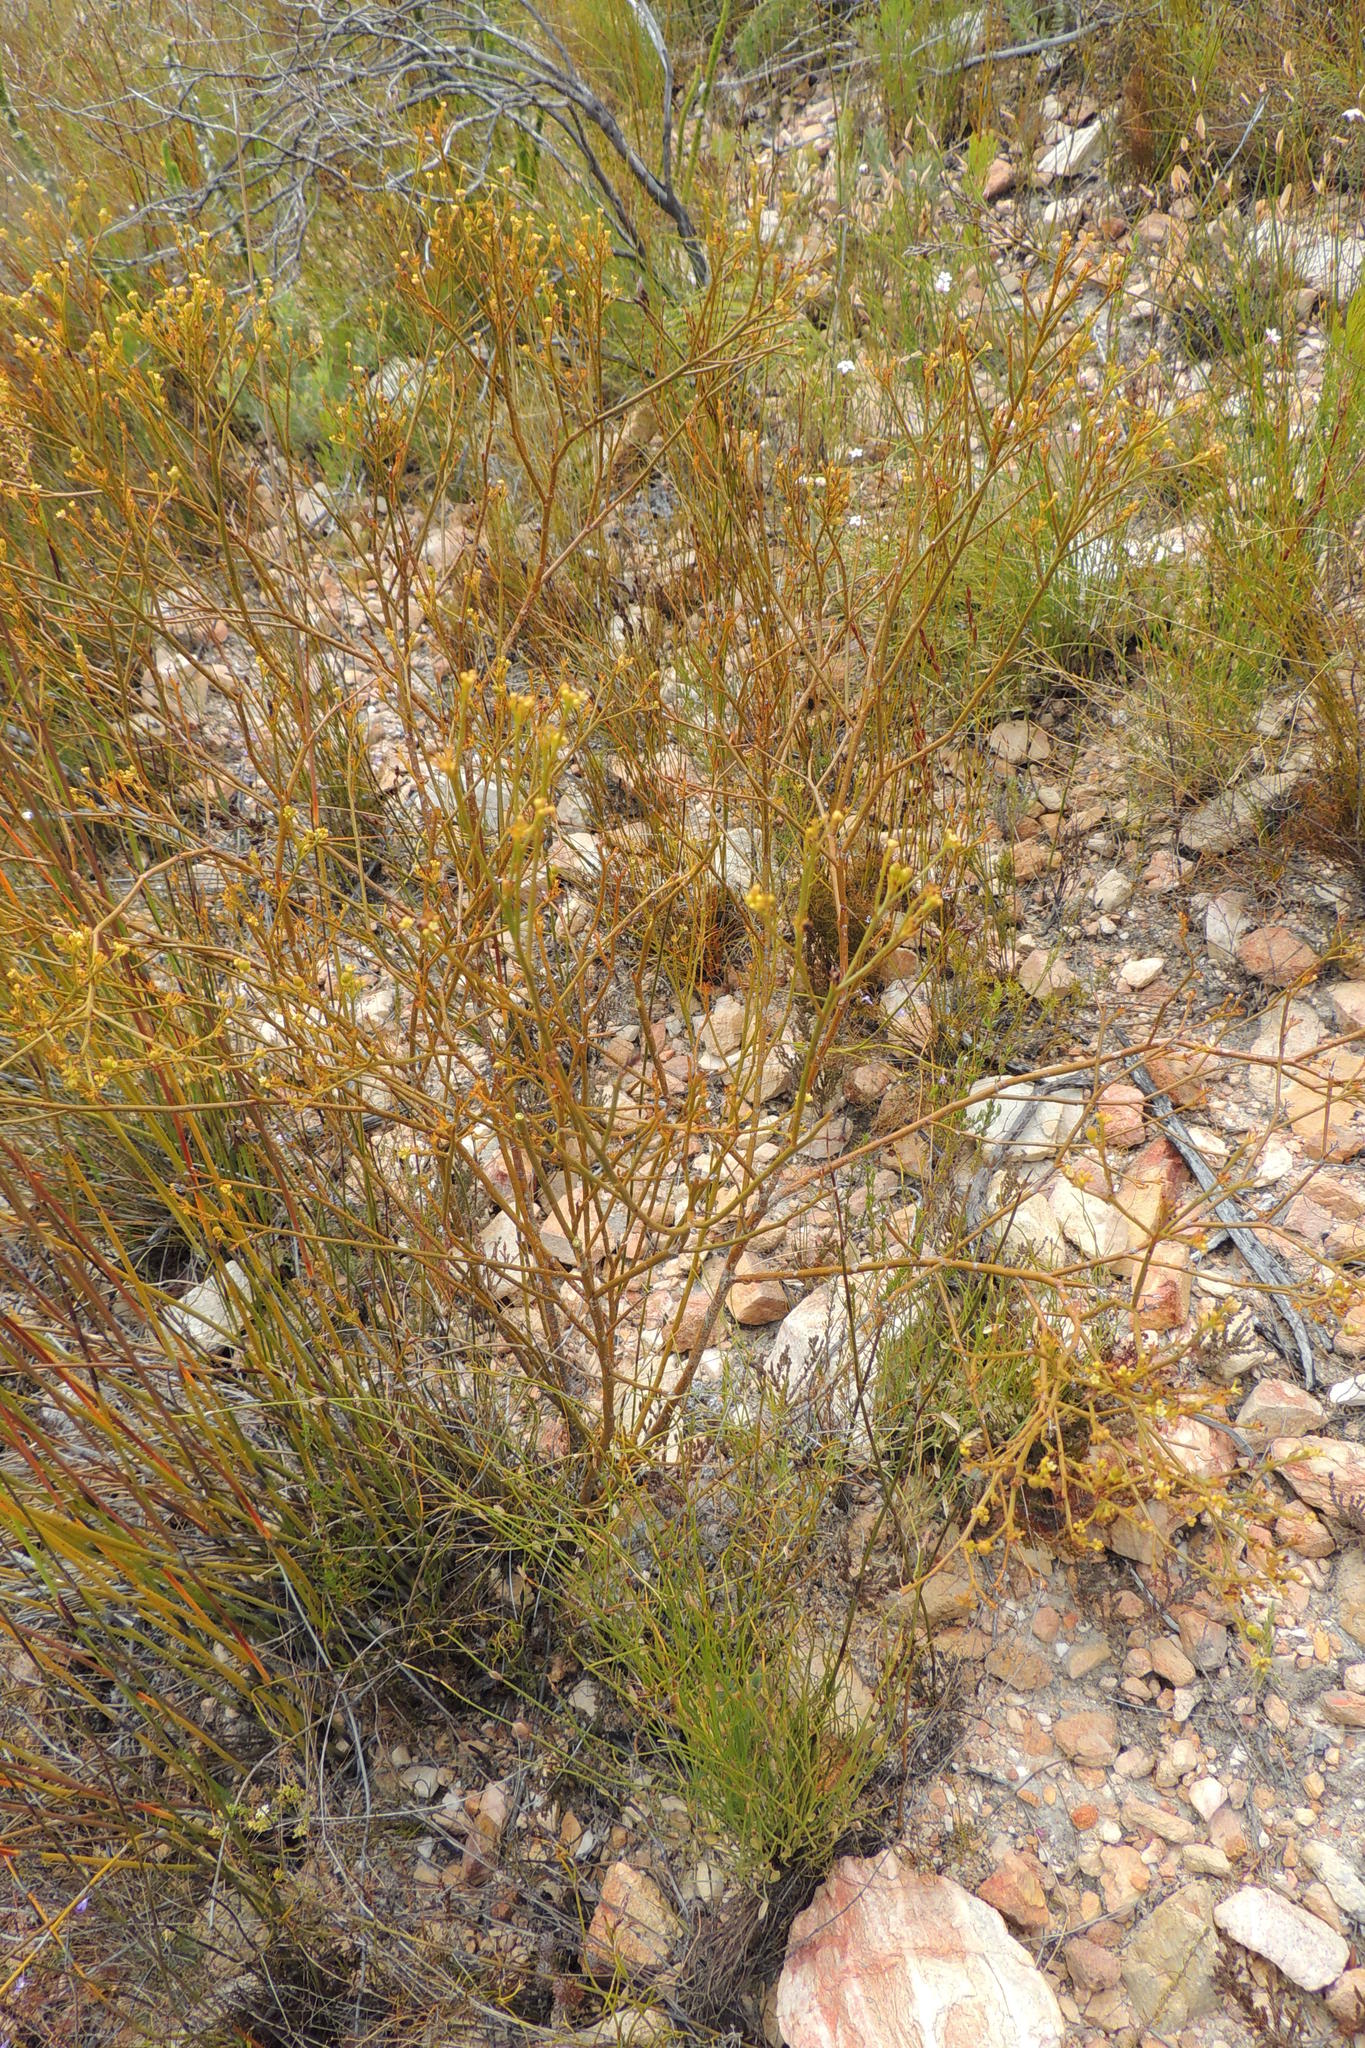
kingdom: Plantae
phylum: Tracheophyta
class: Magnoliopsida
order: Santalales
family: Thesiaceae
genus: Thesium
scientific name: Thesium strictum
